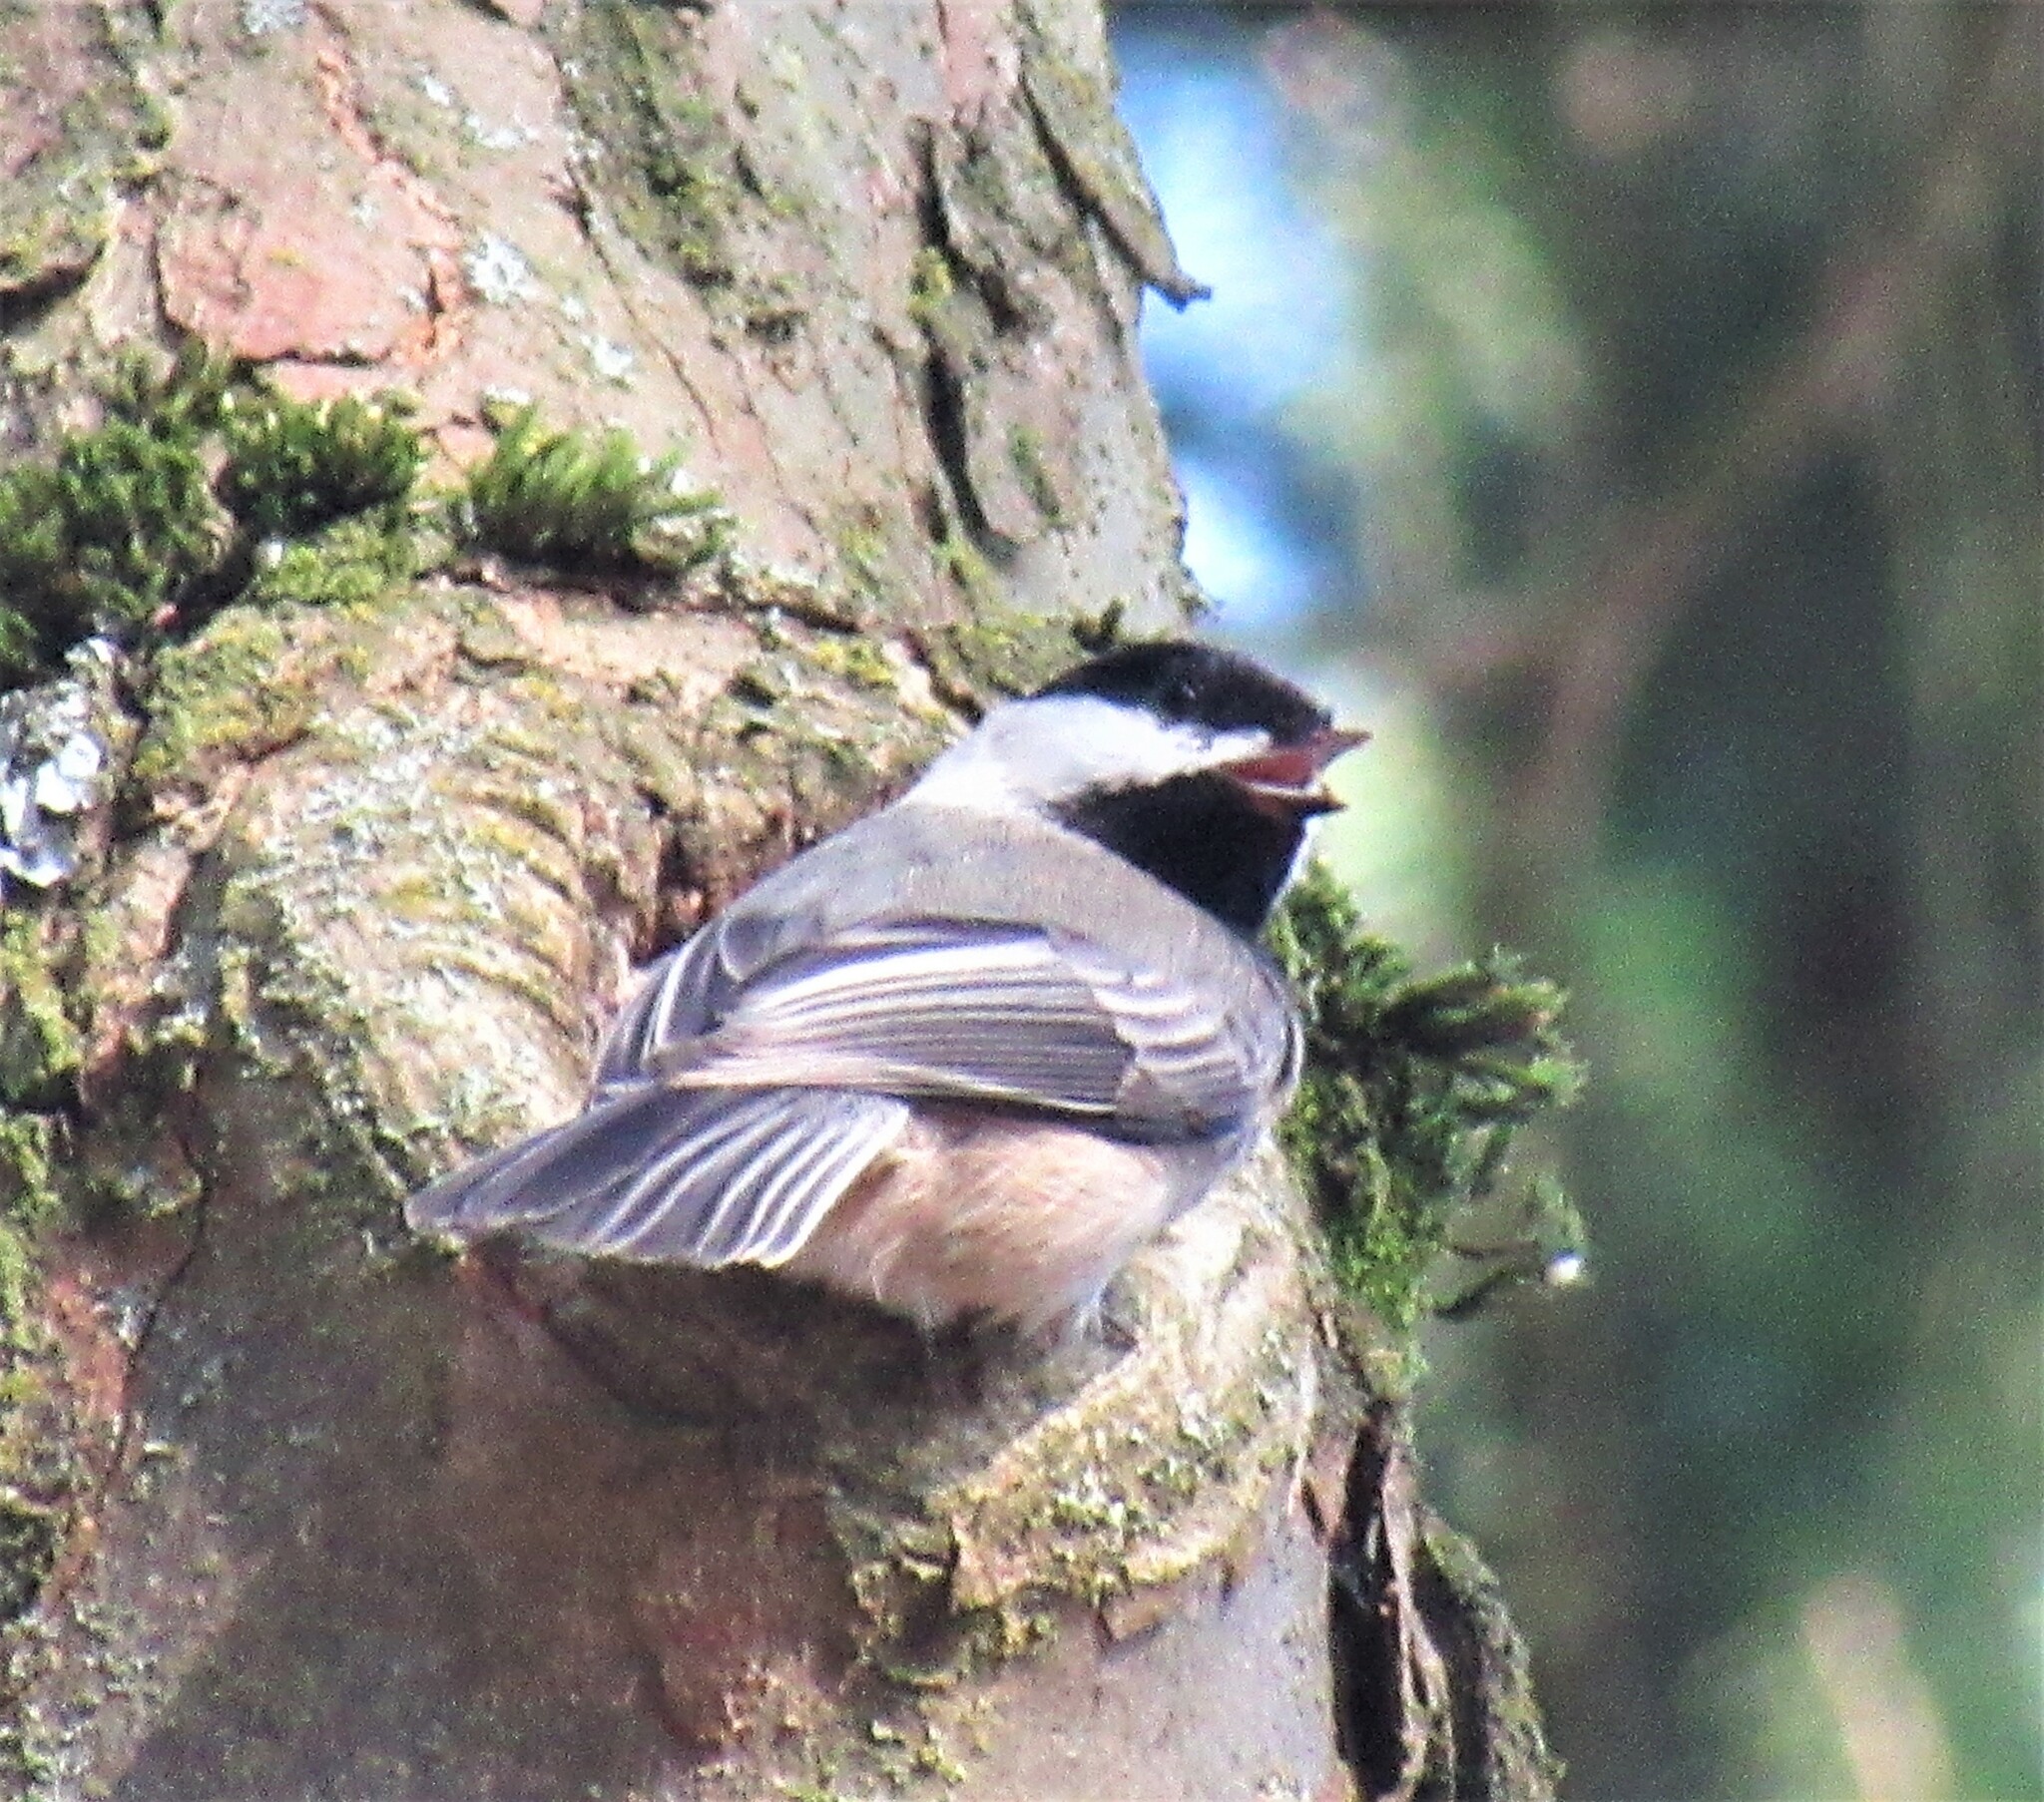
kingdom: Animalia
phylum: Chordata
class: Aves
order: Passeriformes
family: Paridae
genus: Poecile
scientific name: Poecile atricapillus
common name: Black-capped chickadee
